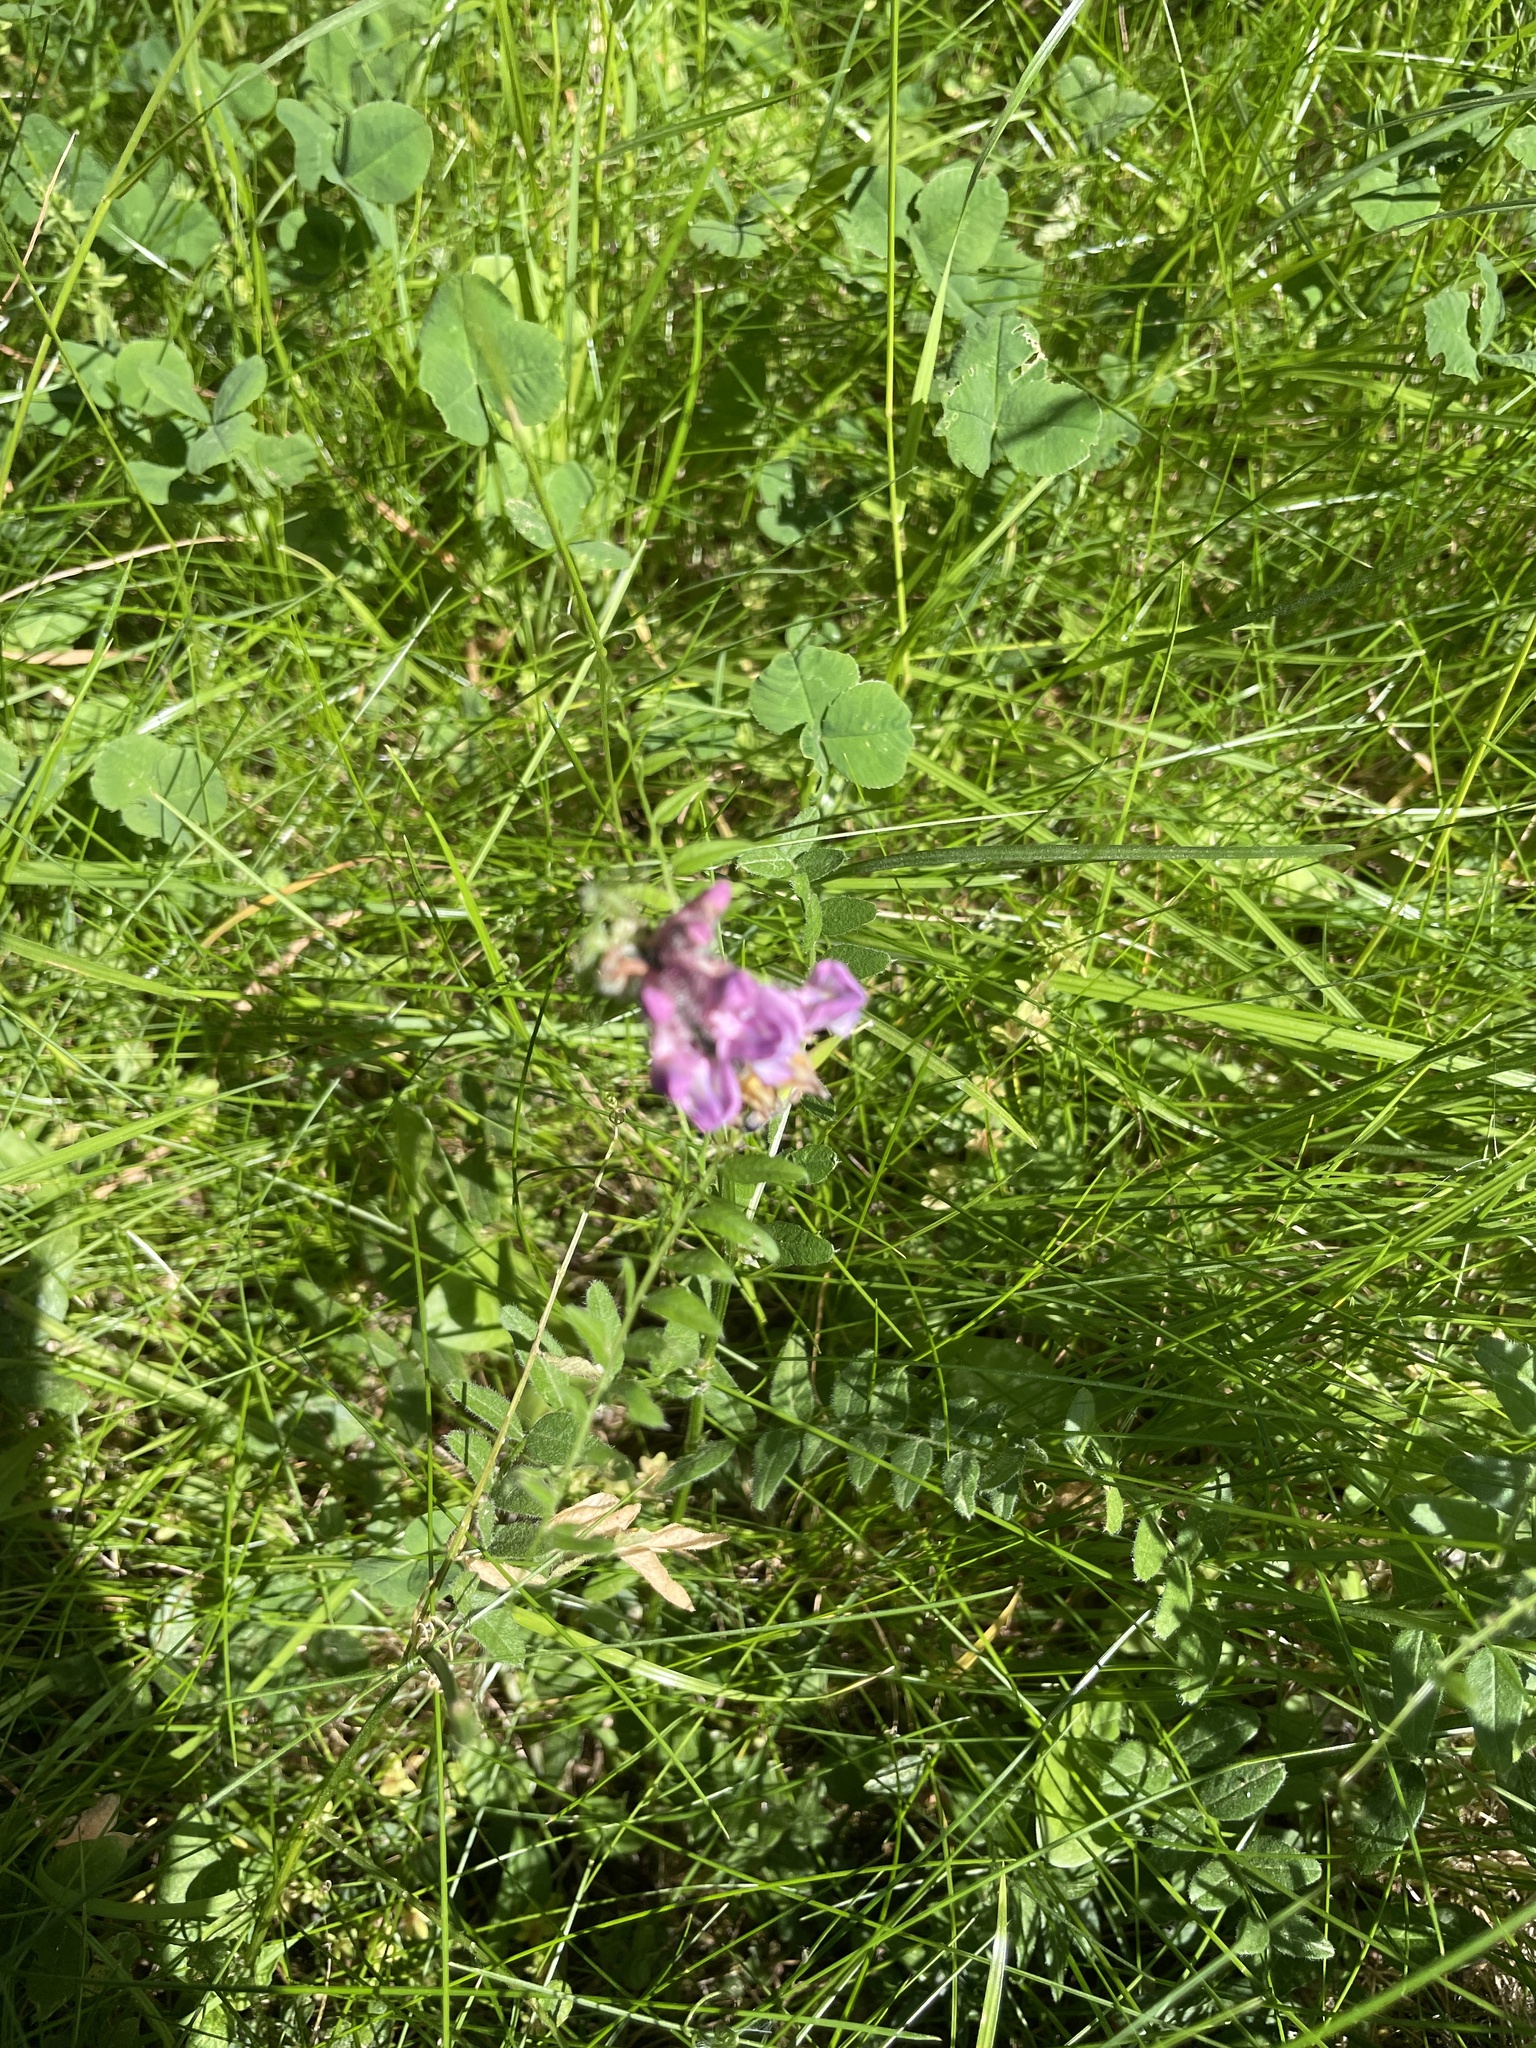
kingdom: Plantae
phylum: Tracheophyta
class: Magnoliopsida
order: Fabales
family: Fabaceae
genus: Vicia
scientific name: Vicia sepium
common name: Bush vetch
